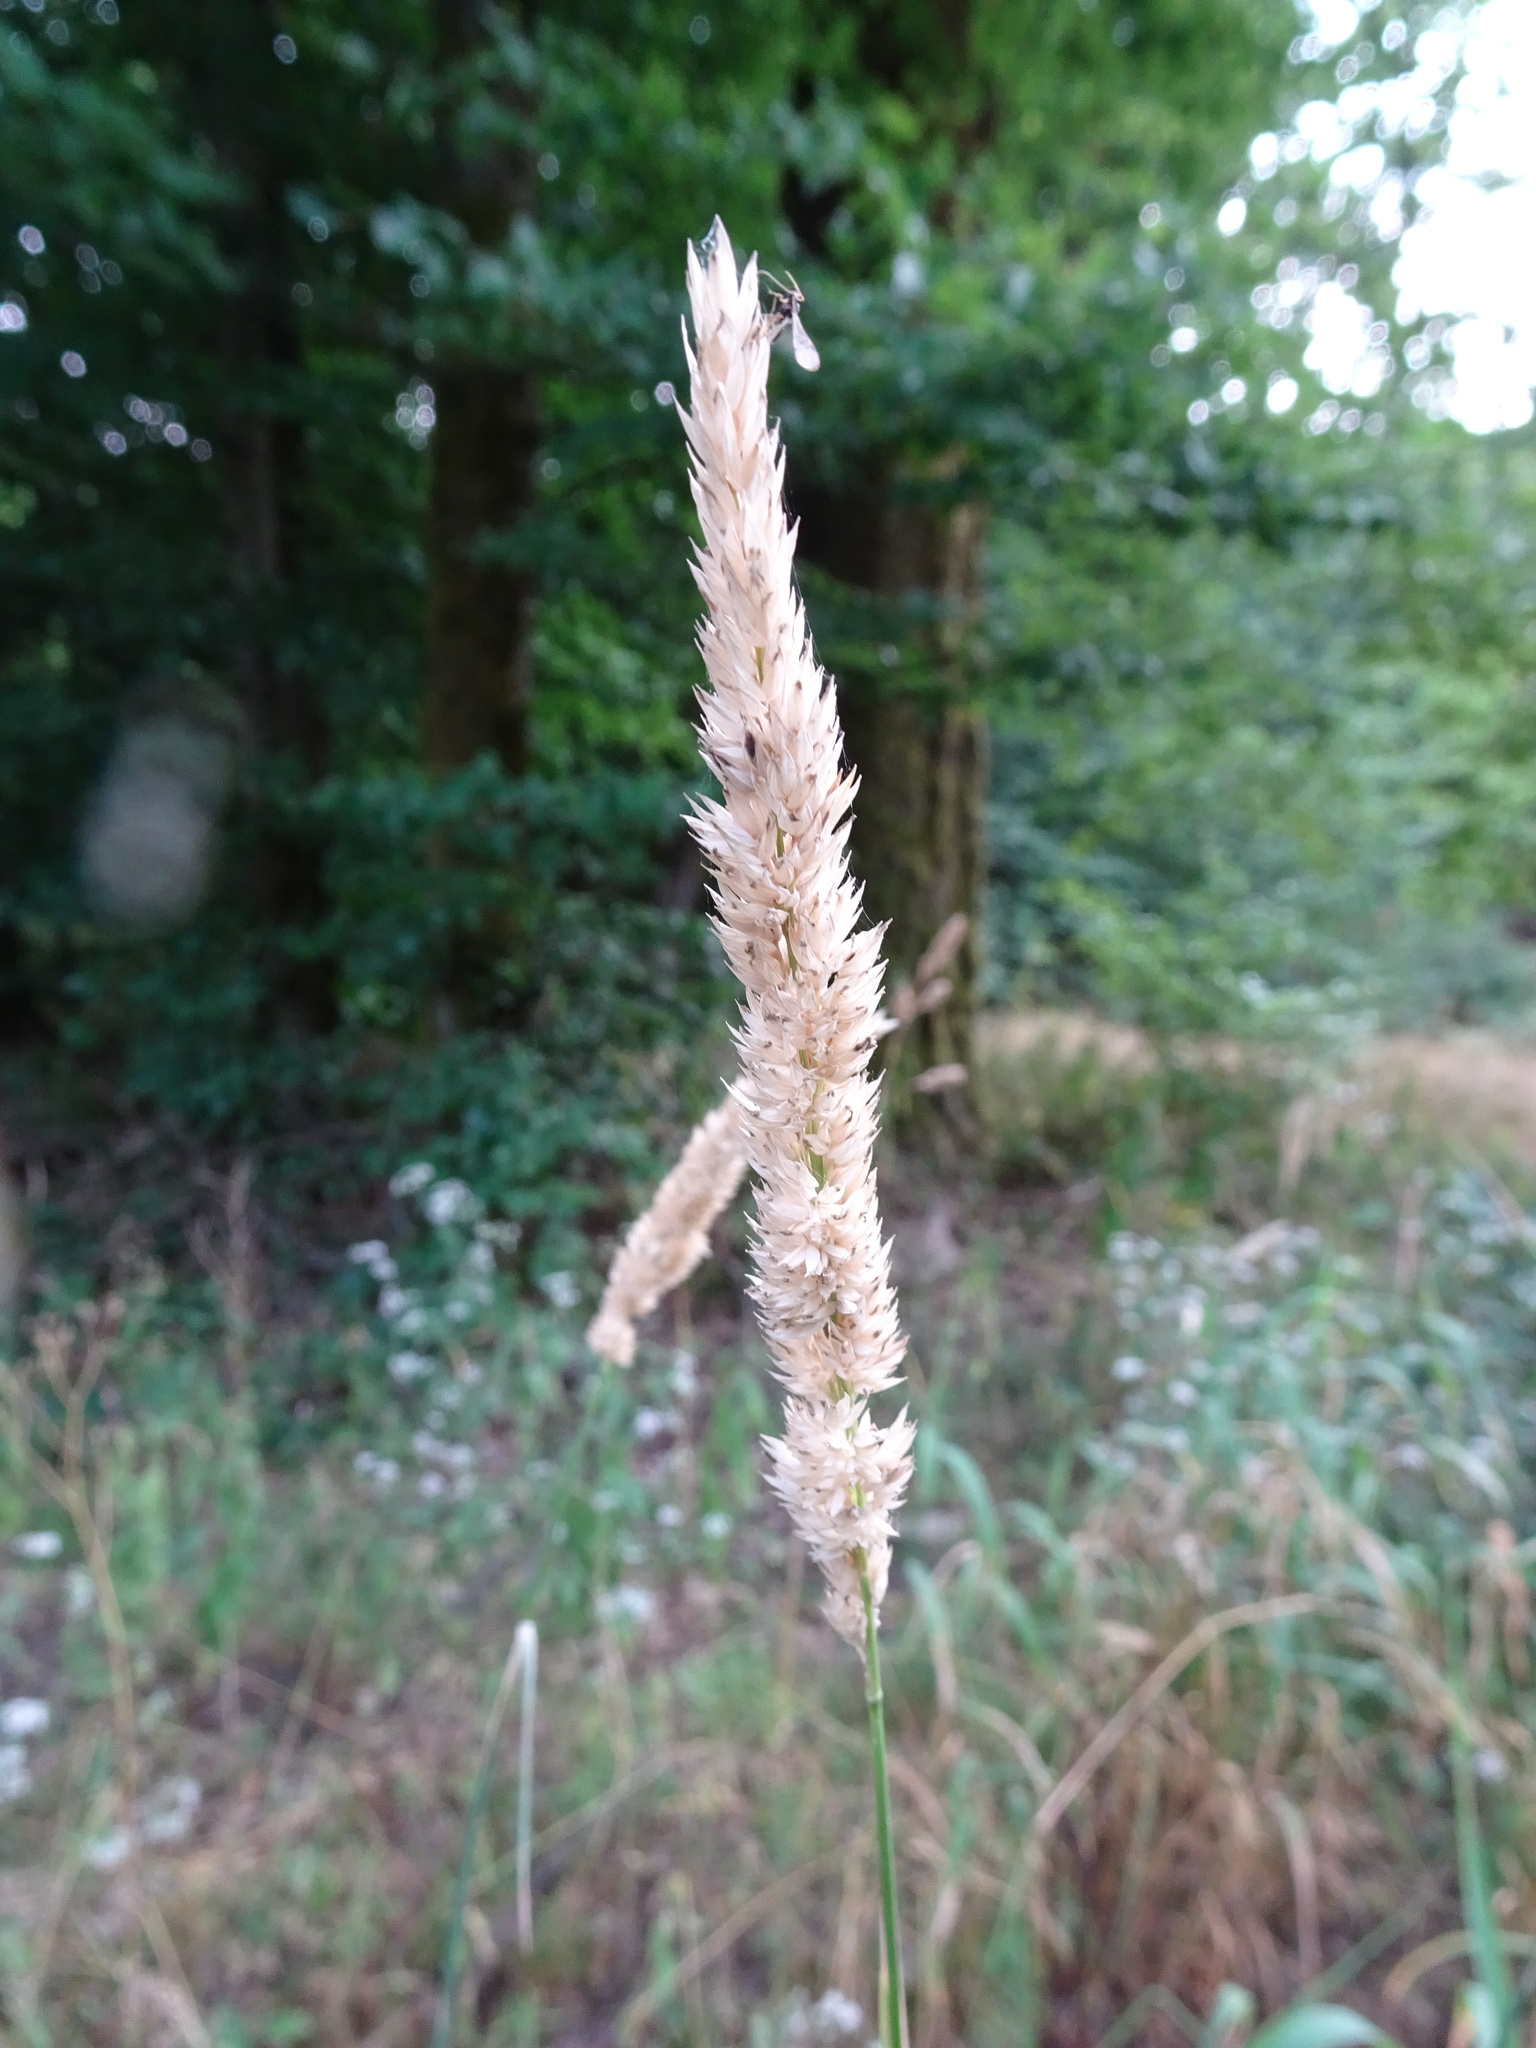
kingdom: Plantae
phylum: Tracheophyta
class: Liliopsida
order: Poales
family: Poaceae
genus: Phalaris
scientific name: Phalaris arundinacea
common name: Reed canary-grass
